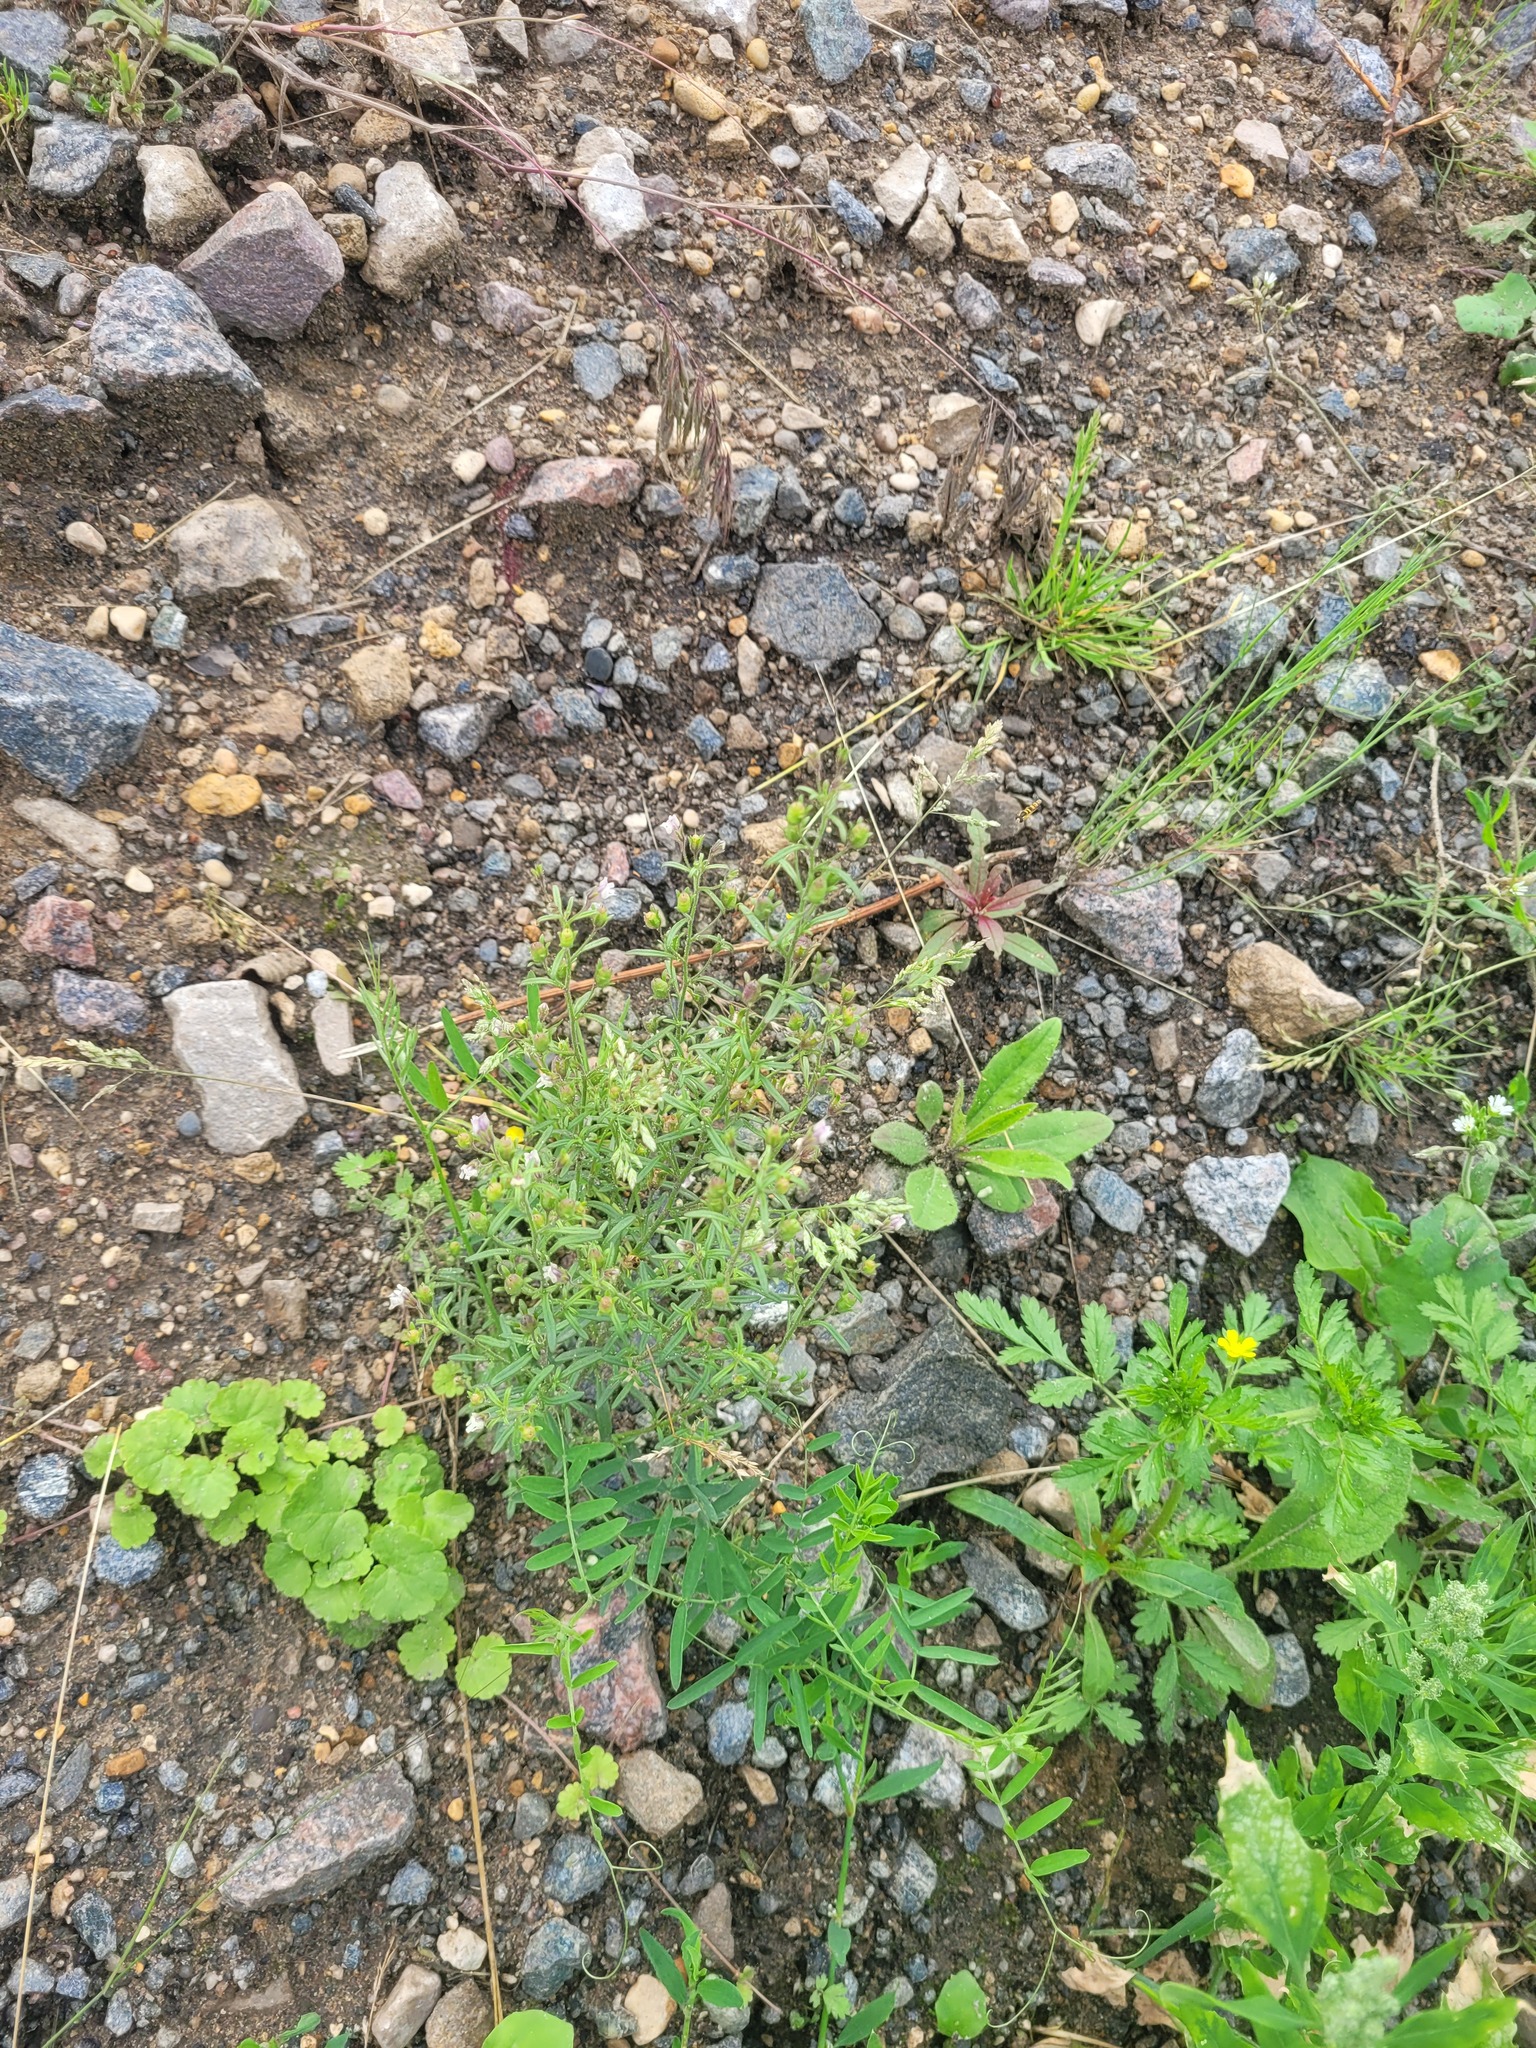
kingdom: Plantae
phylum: Tracheophyta
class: Magnoliopsida
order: Lamiales
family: Plantaginaceae
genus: Chaenorhinum
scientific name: Chaenorhinum minus
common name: Dwarf snapdragon
